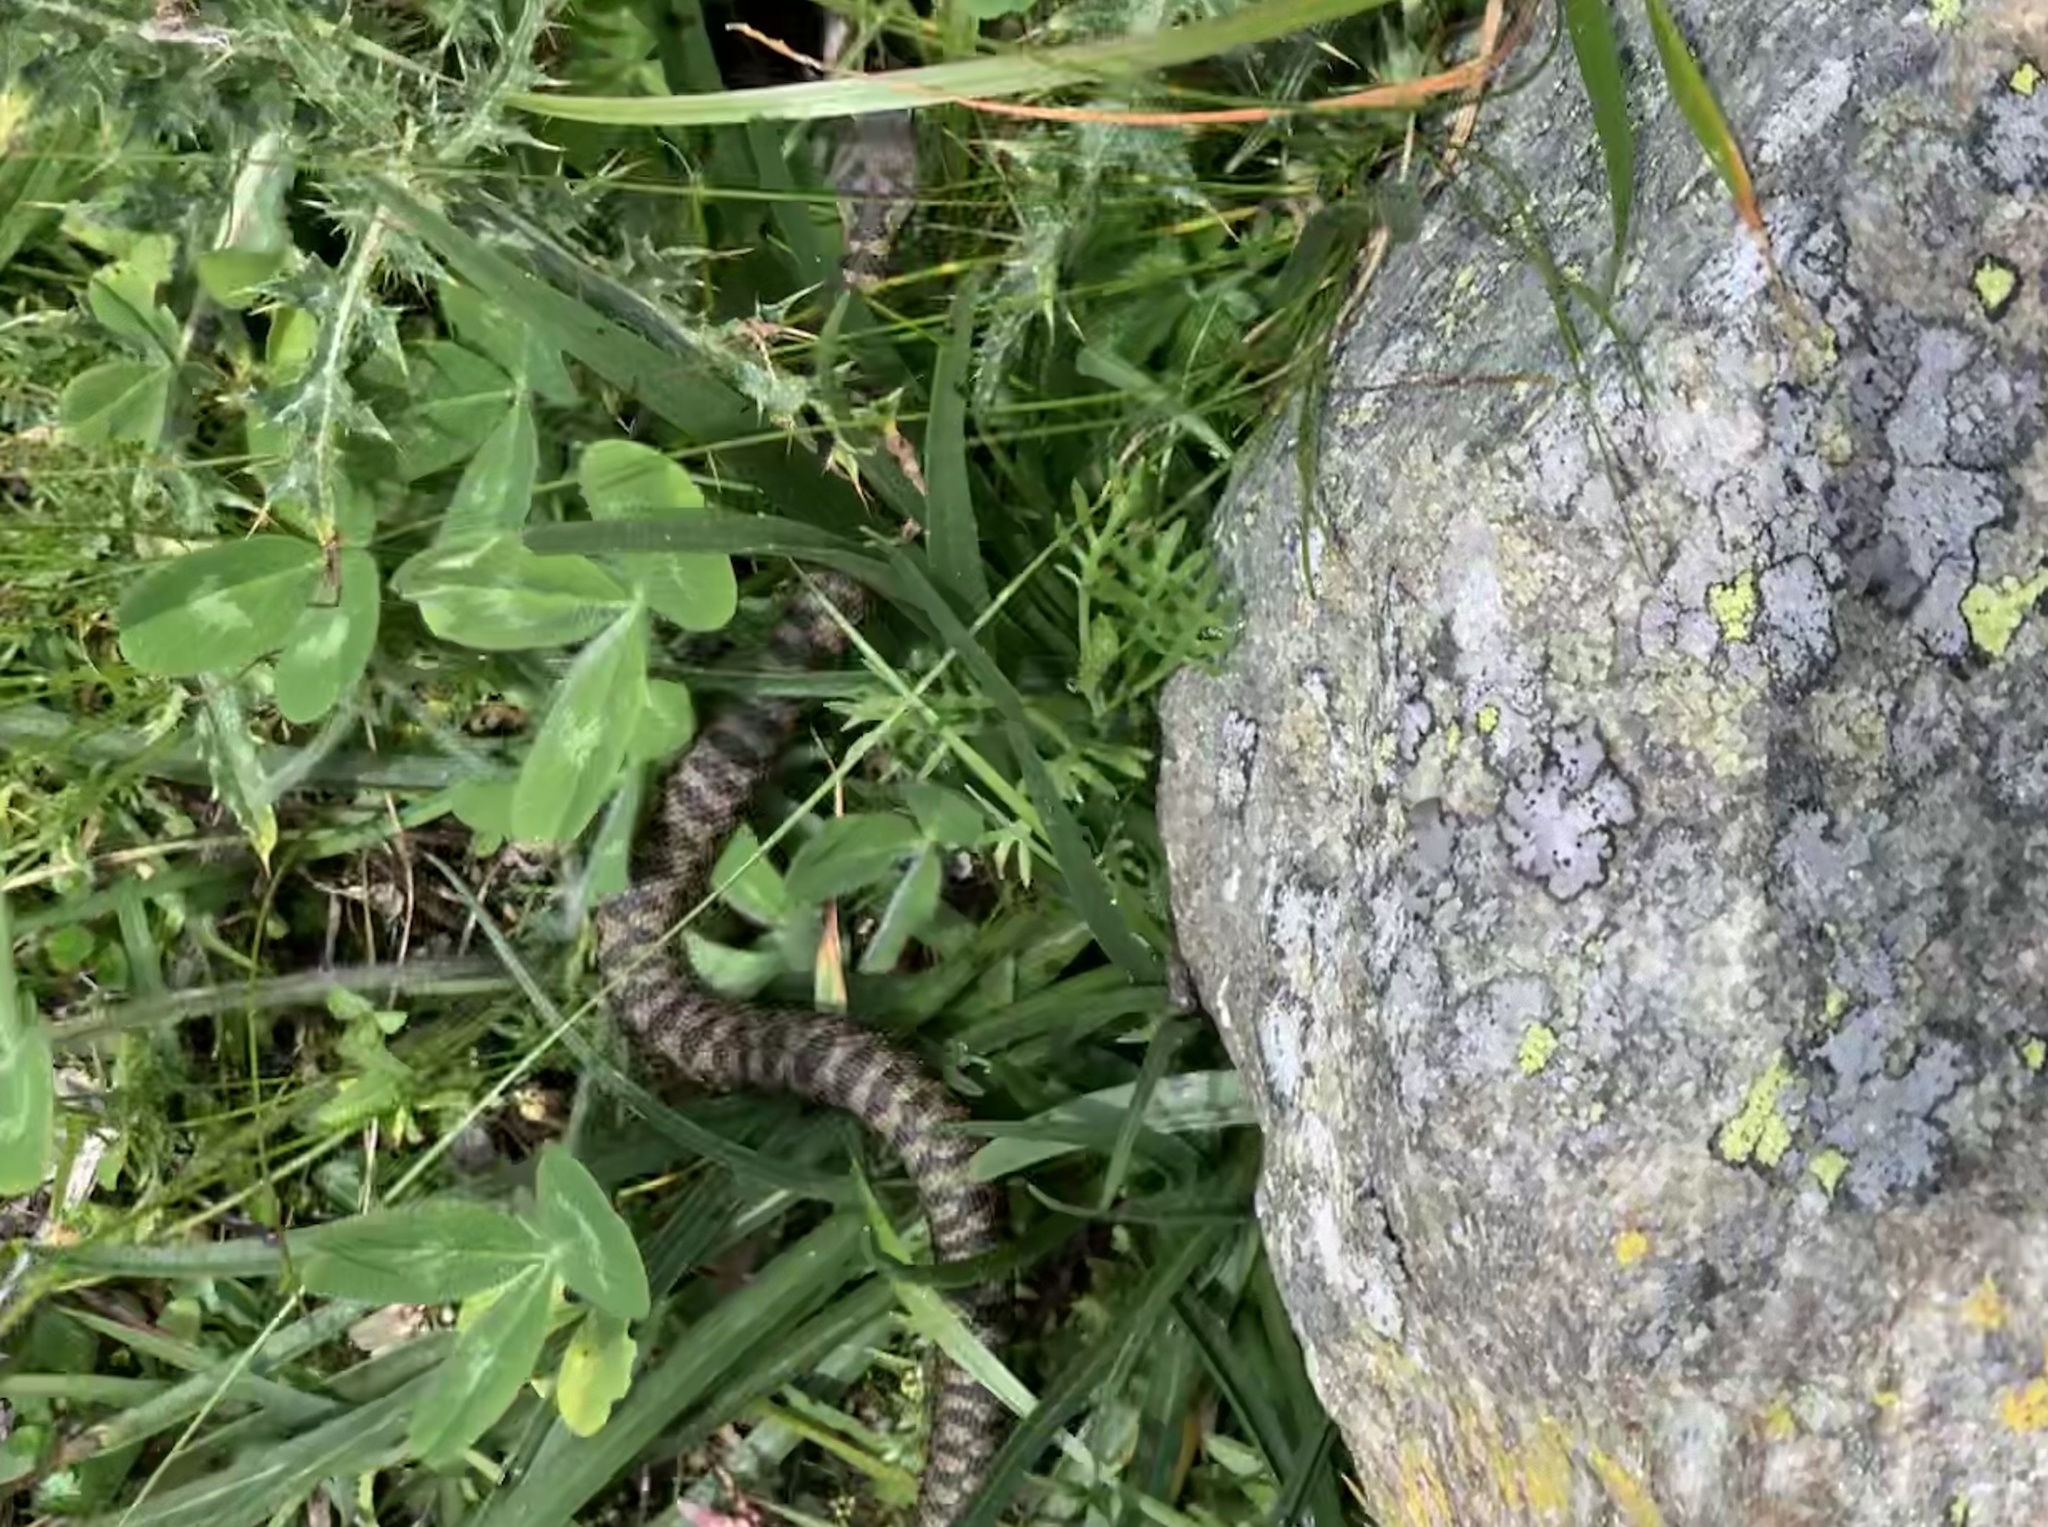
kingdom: Animalia
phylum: Chordata
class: Squamata
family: Viperidae
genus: Vipera
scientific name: Vipera aspis
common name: Asp viper
